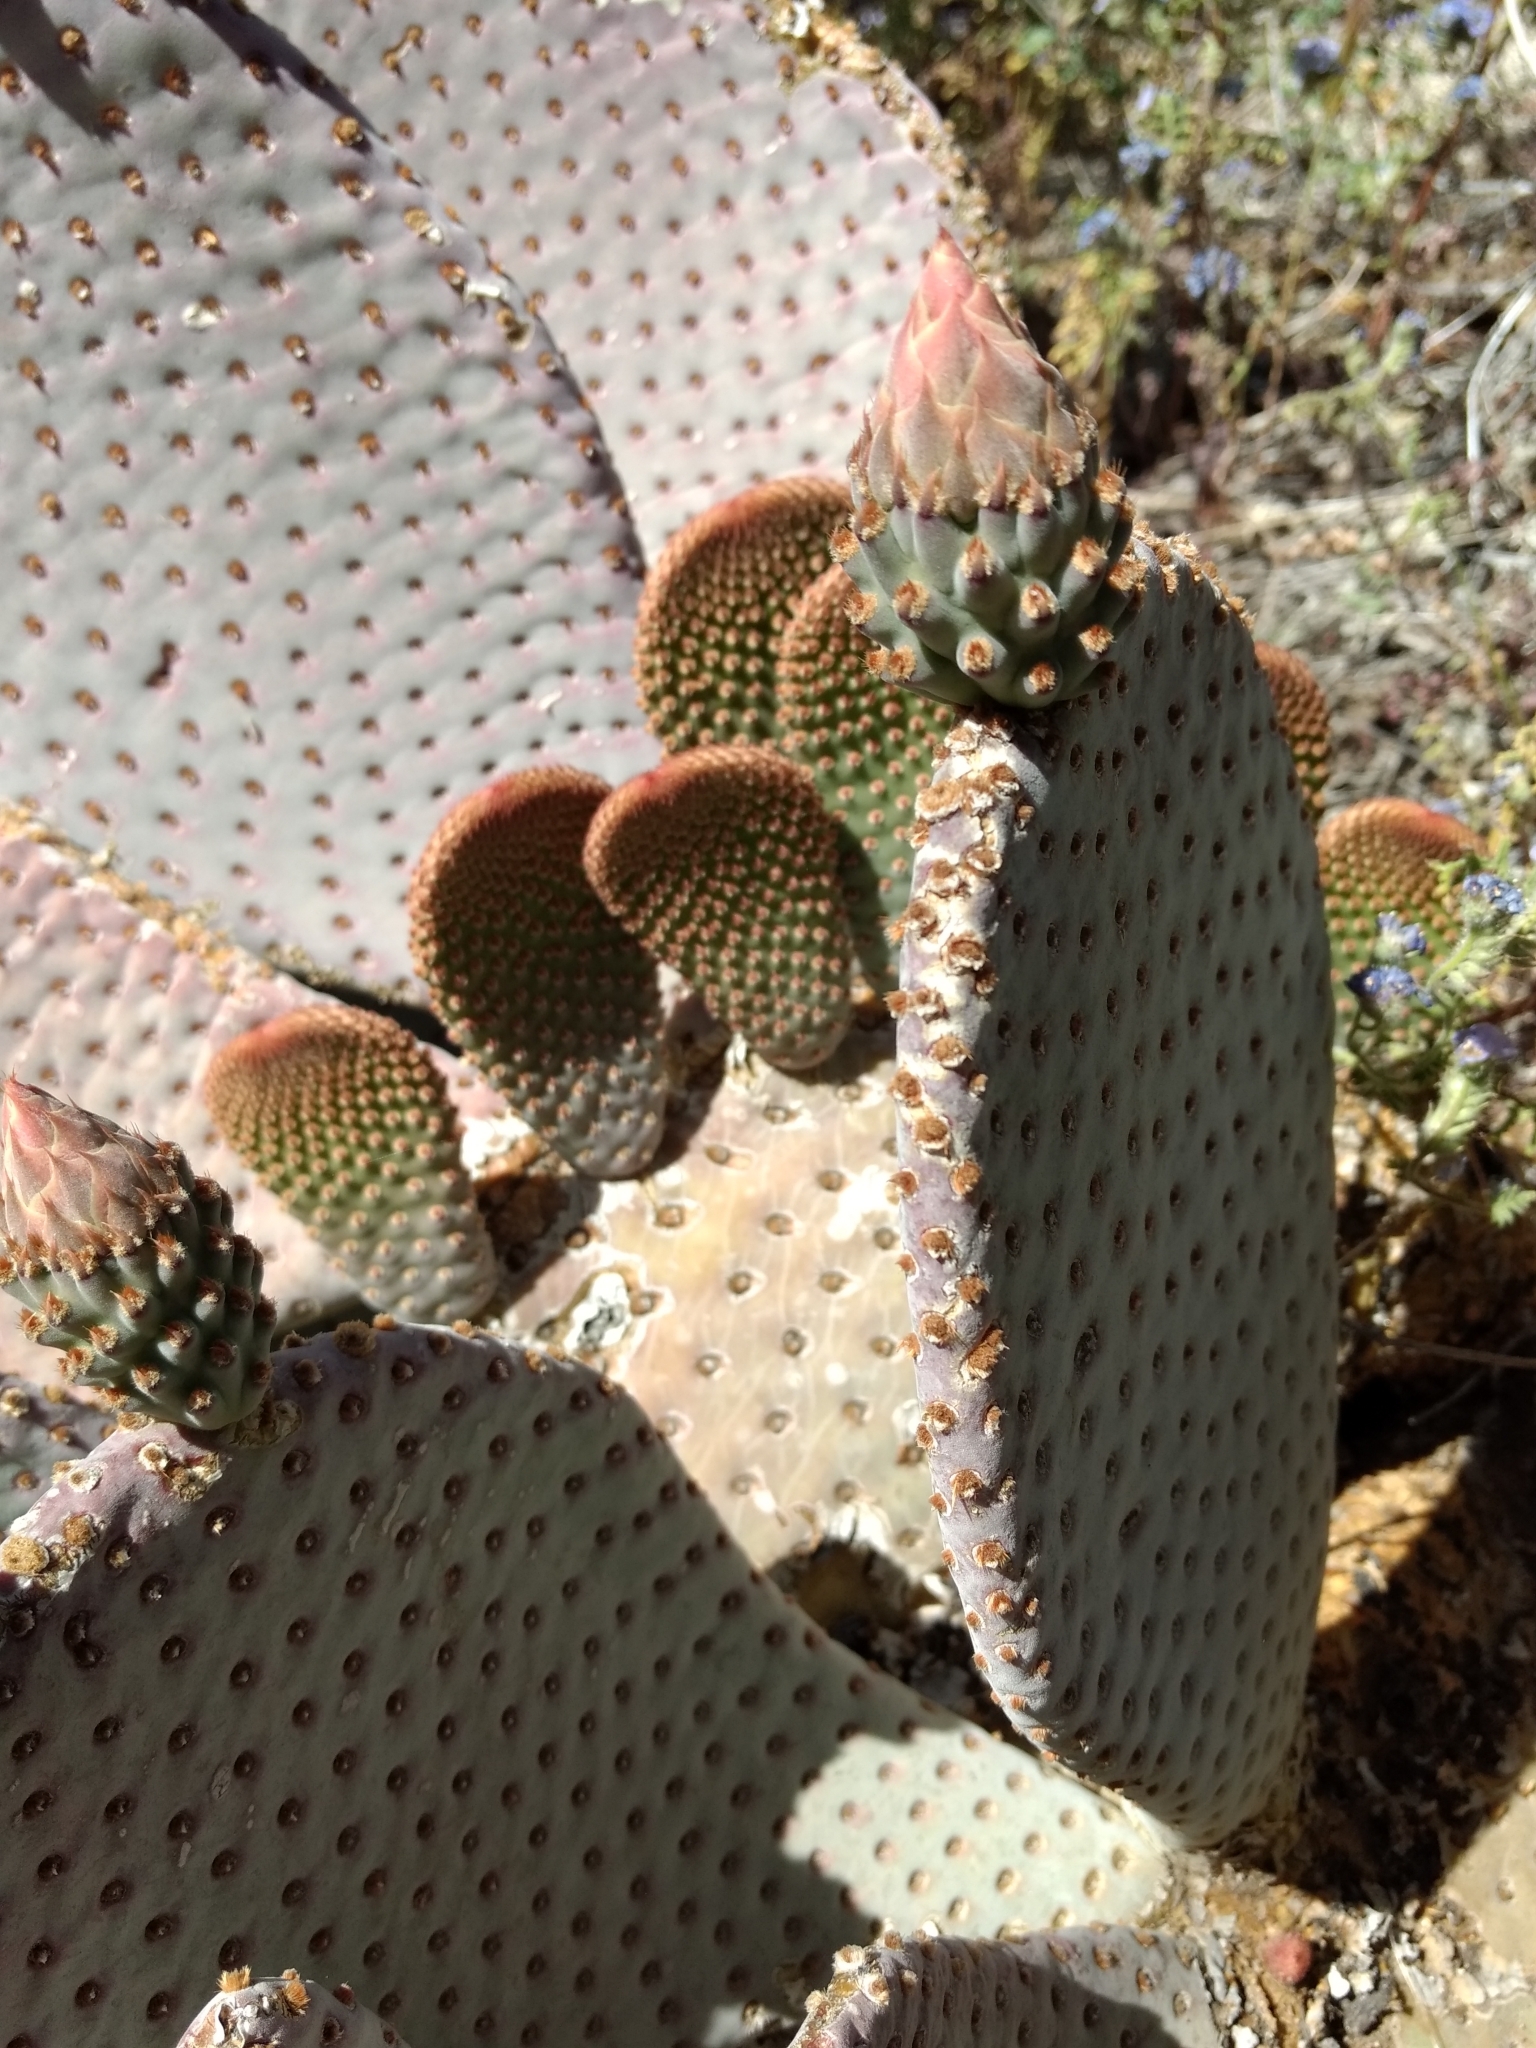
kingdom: Plantae
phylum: Tracheophyta
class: Magnoliopsida
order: Caryophyllales
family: Cactaceae
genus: Opuntia
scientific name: Opuntia basilaris
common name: Beavertail prickly-pear
